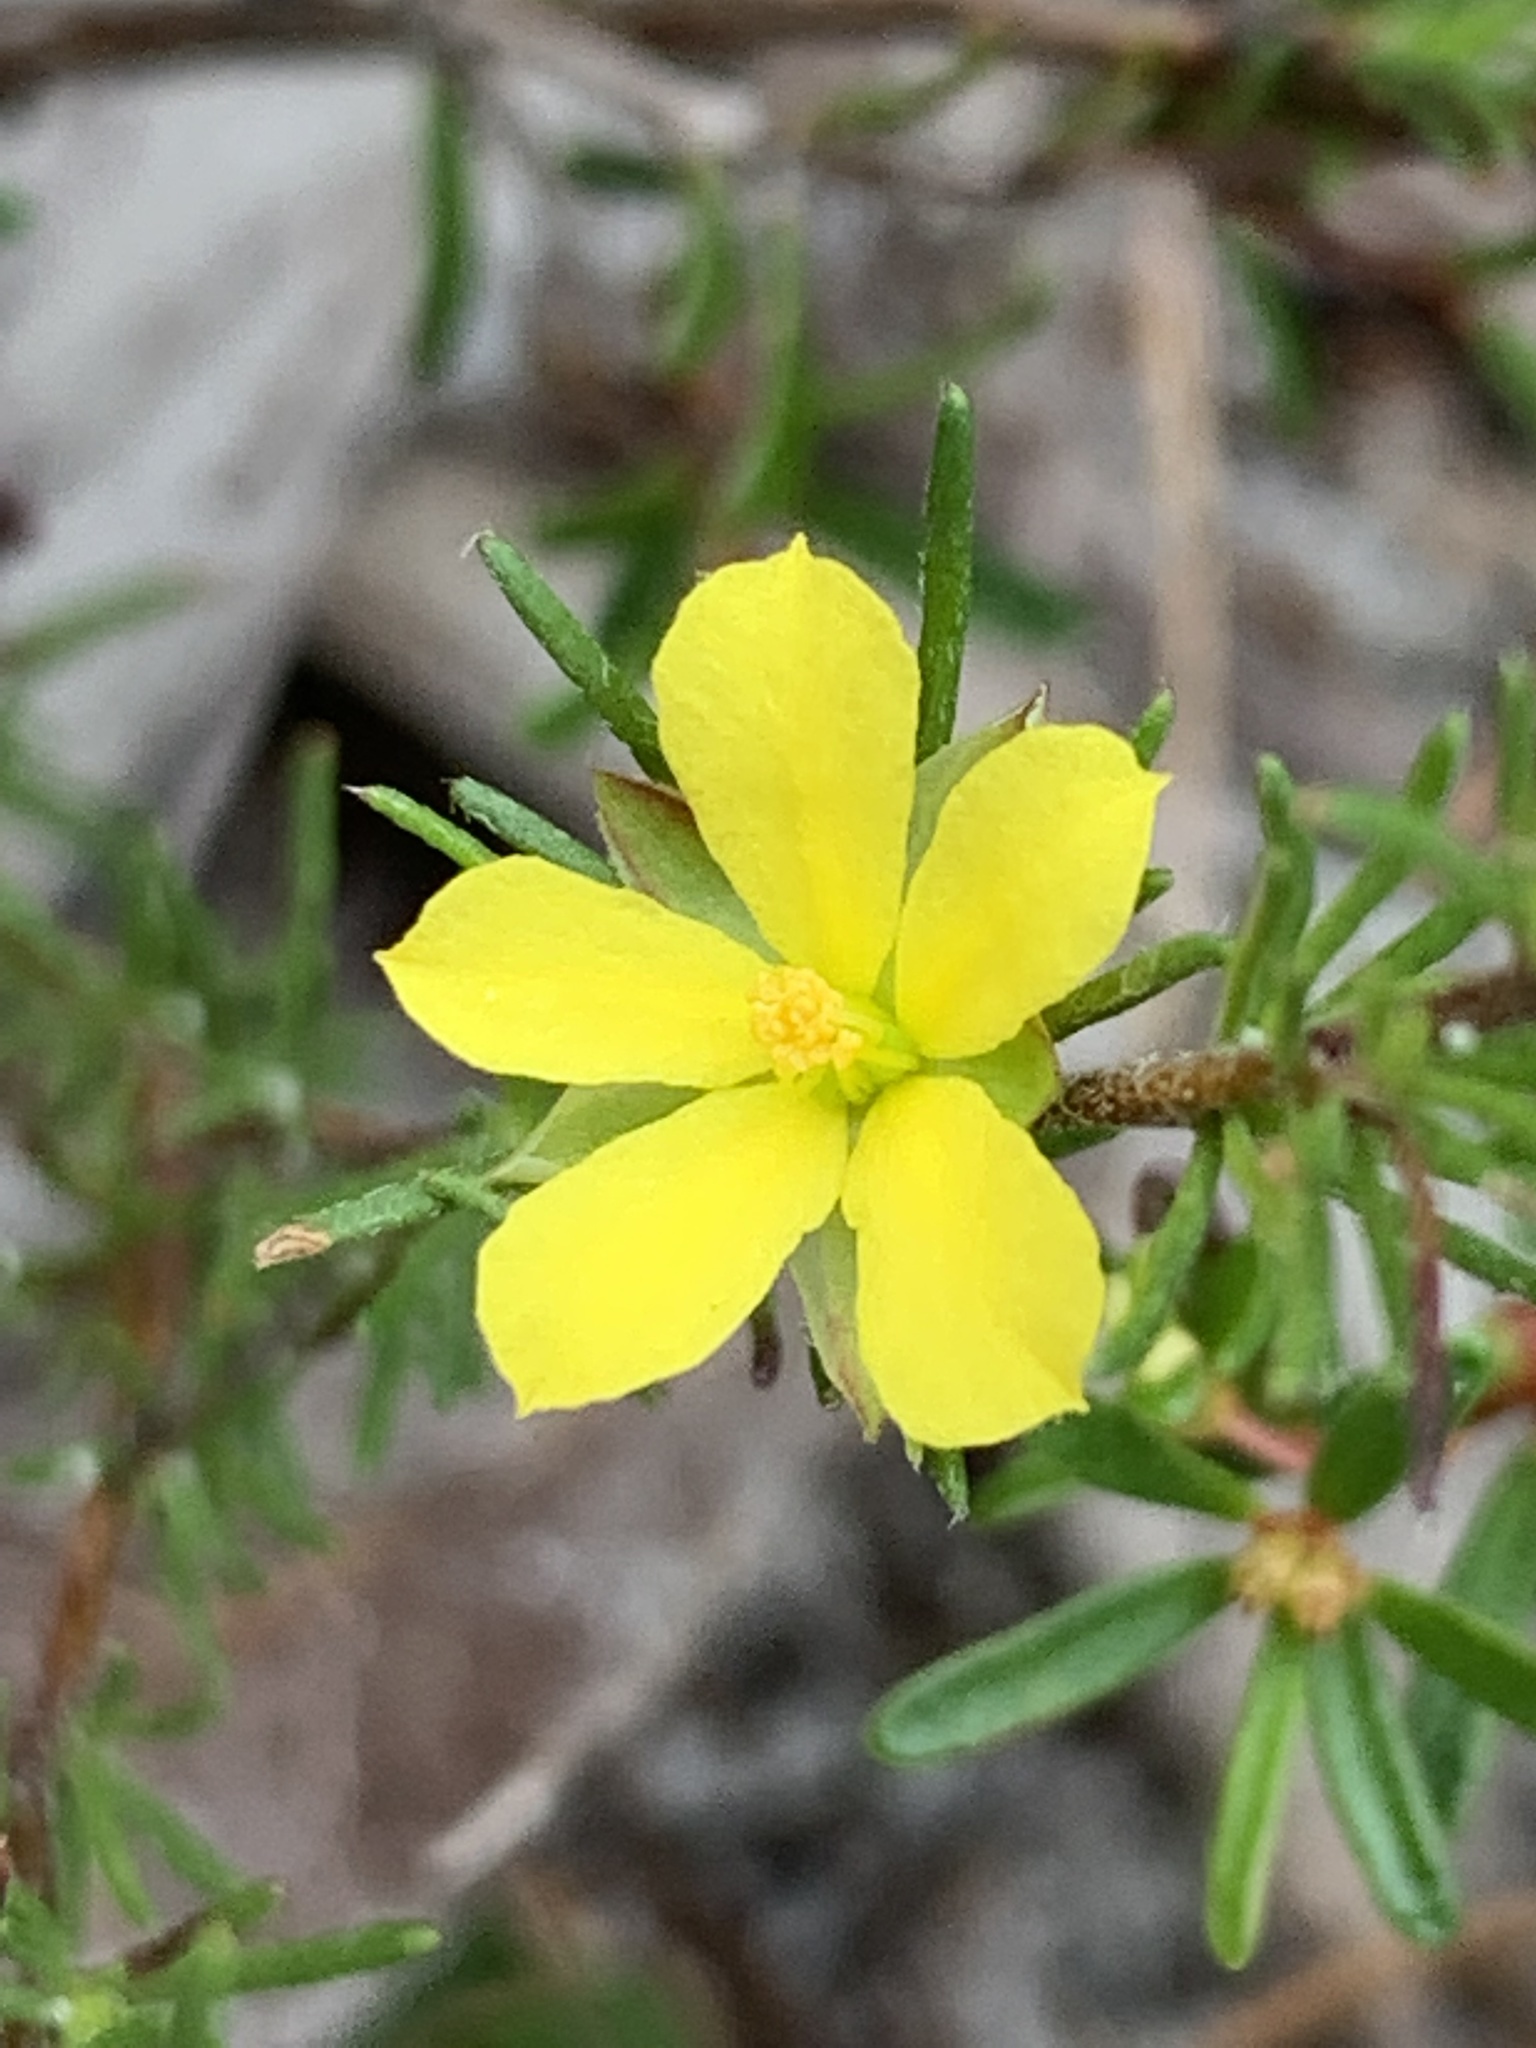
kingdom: Plantae
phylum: Tracheophyta
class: Magnoliopsida
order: Dilleniales
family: Dilleniaceae
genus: Hibbertia
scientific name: Hibbertia linearis
